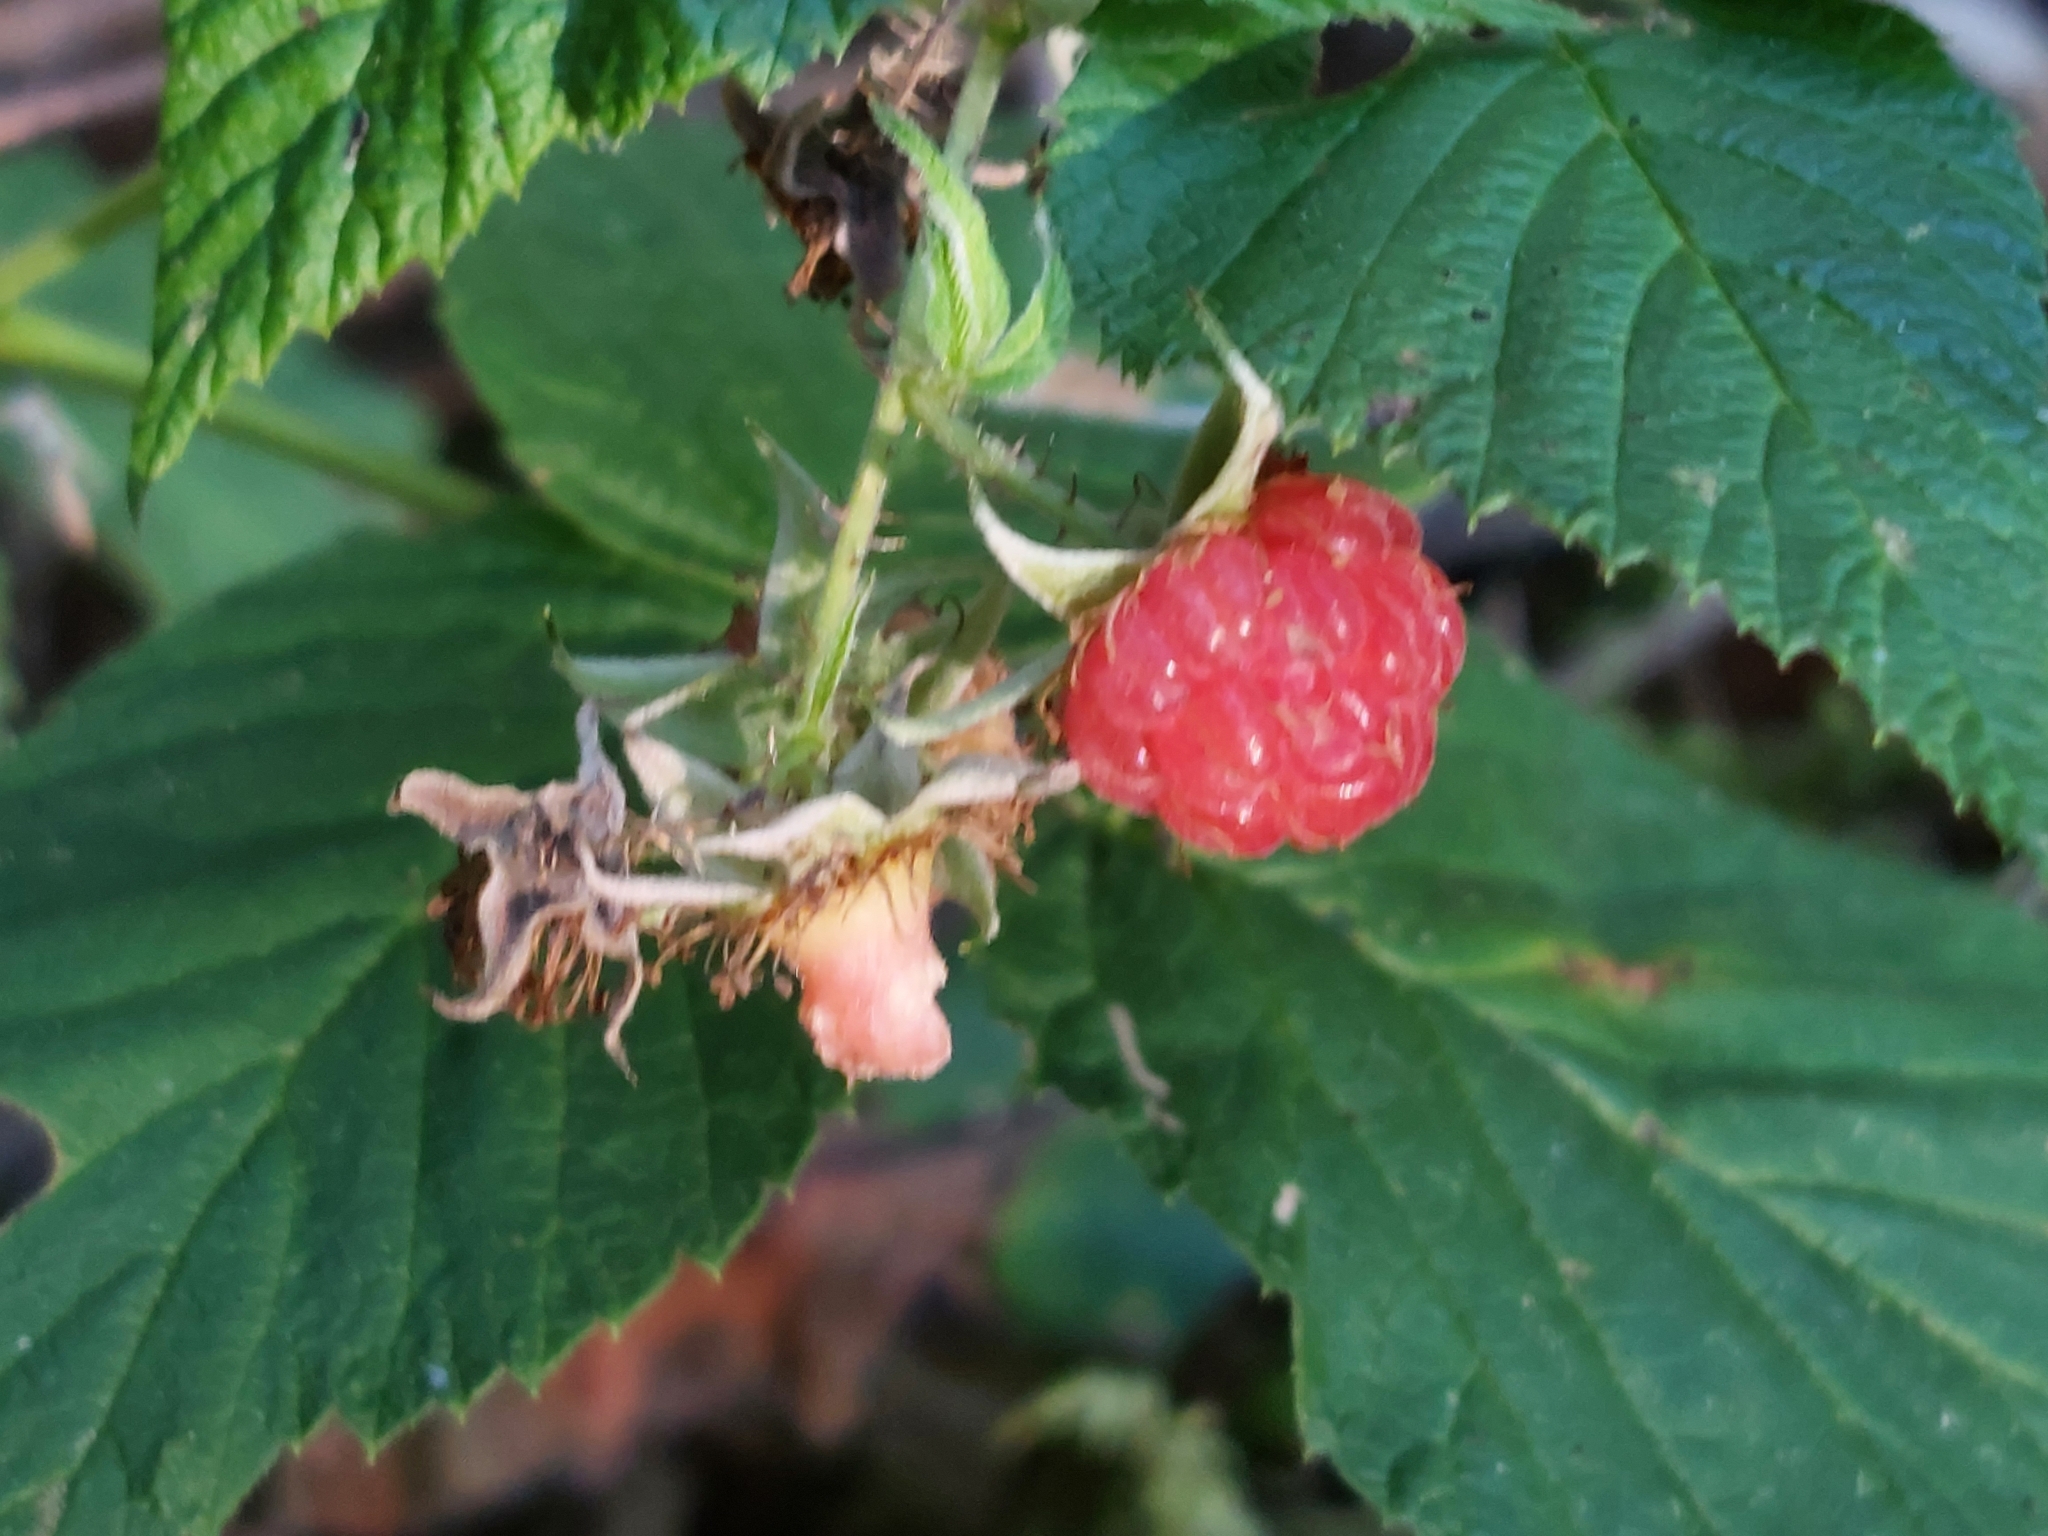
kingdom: Plantae
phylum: Tracheophyta
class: Magnoliopsida
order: Rosales
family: Rosaceae
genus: Rubus
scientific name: Rubus idaeus
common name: Raspberry
